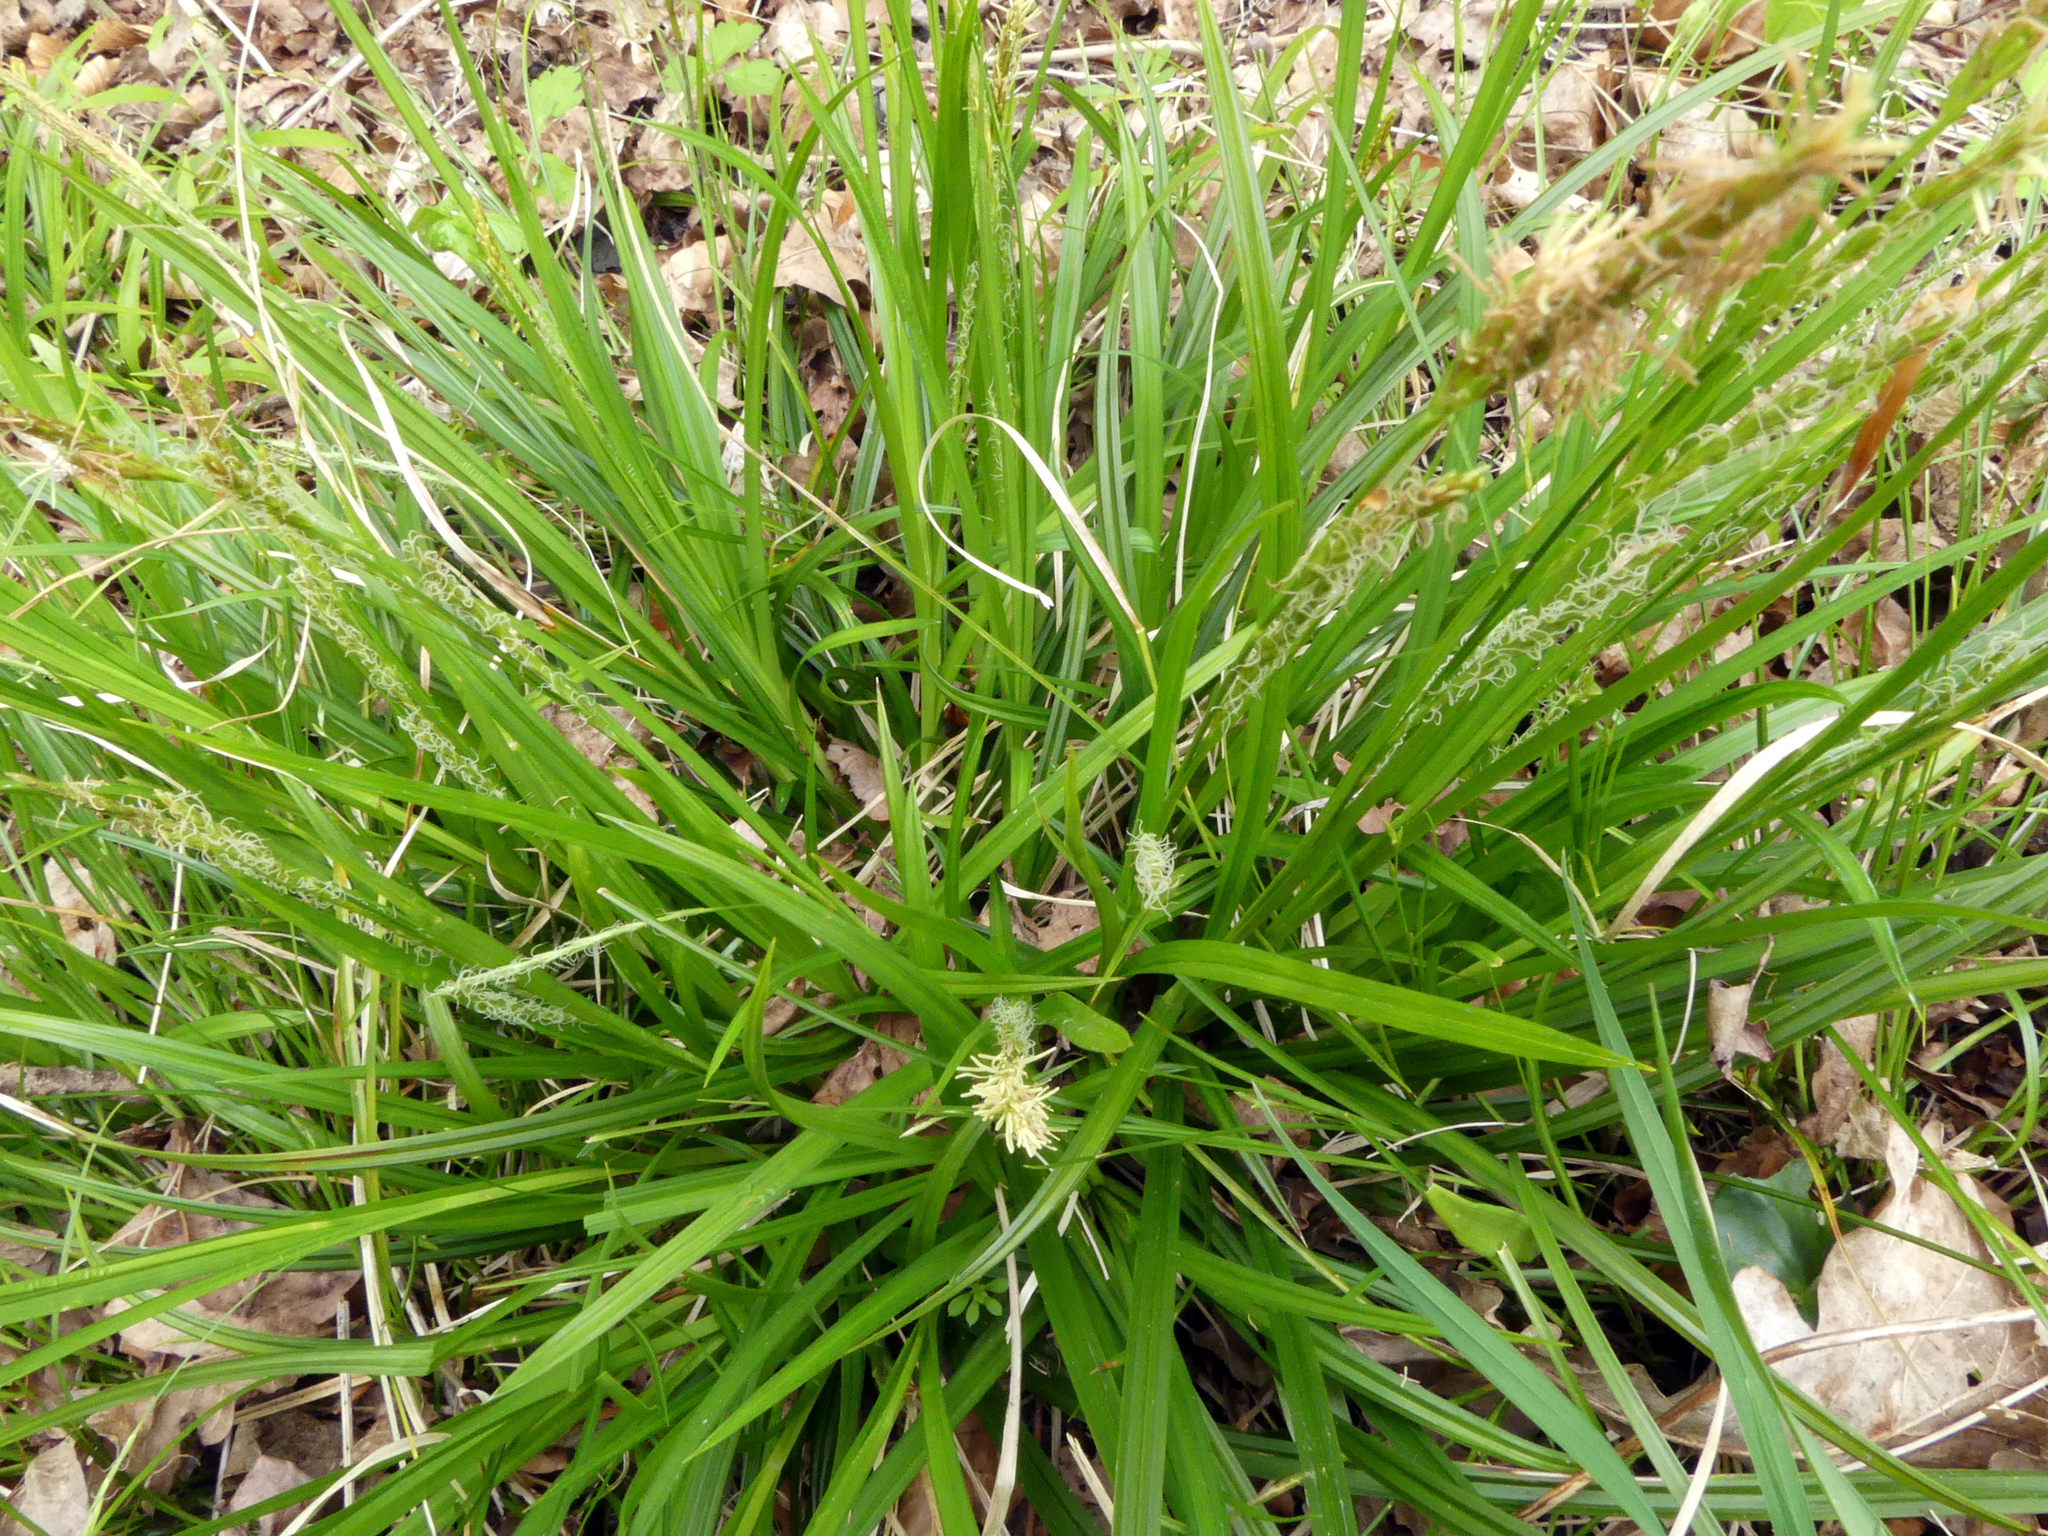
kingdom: Plantae
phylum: Tracheophyta
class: Liliopsida
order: Poales
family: Cyperaceae
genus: Carex
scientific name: Carex sylvatica
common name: Wood-sedge
